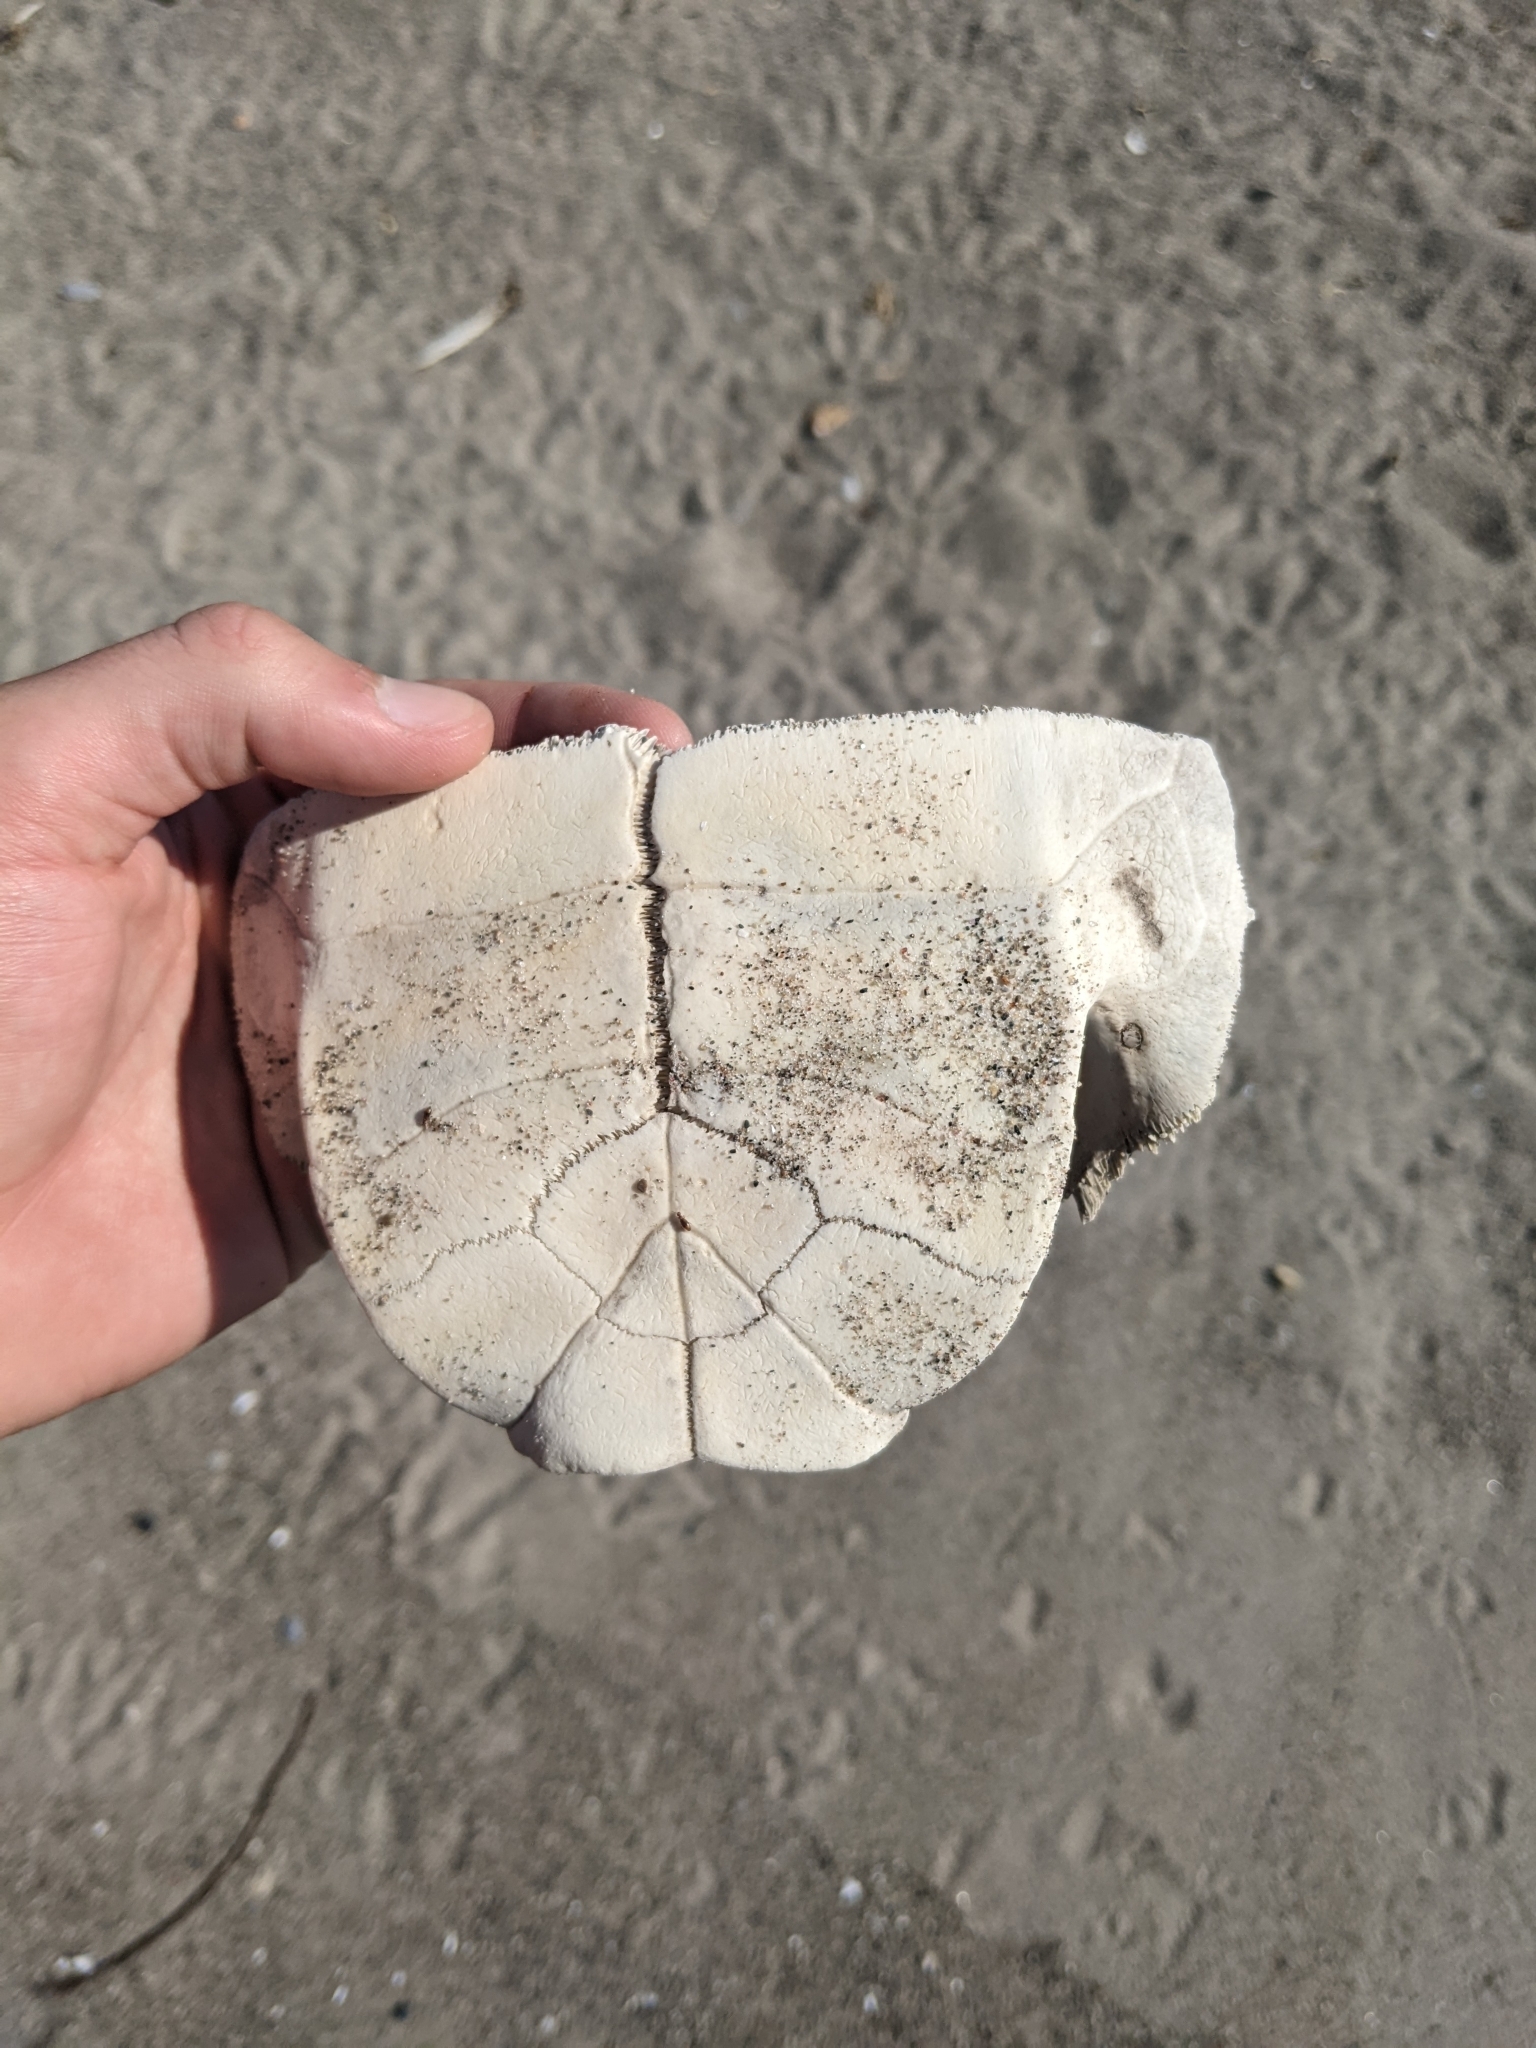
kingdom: Animalia
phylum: Chordata
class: Testudines
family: Emydidae
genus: Chrysemys
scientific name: Chrysemys picta
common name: Painted turtle
